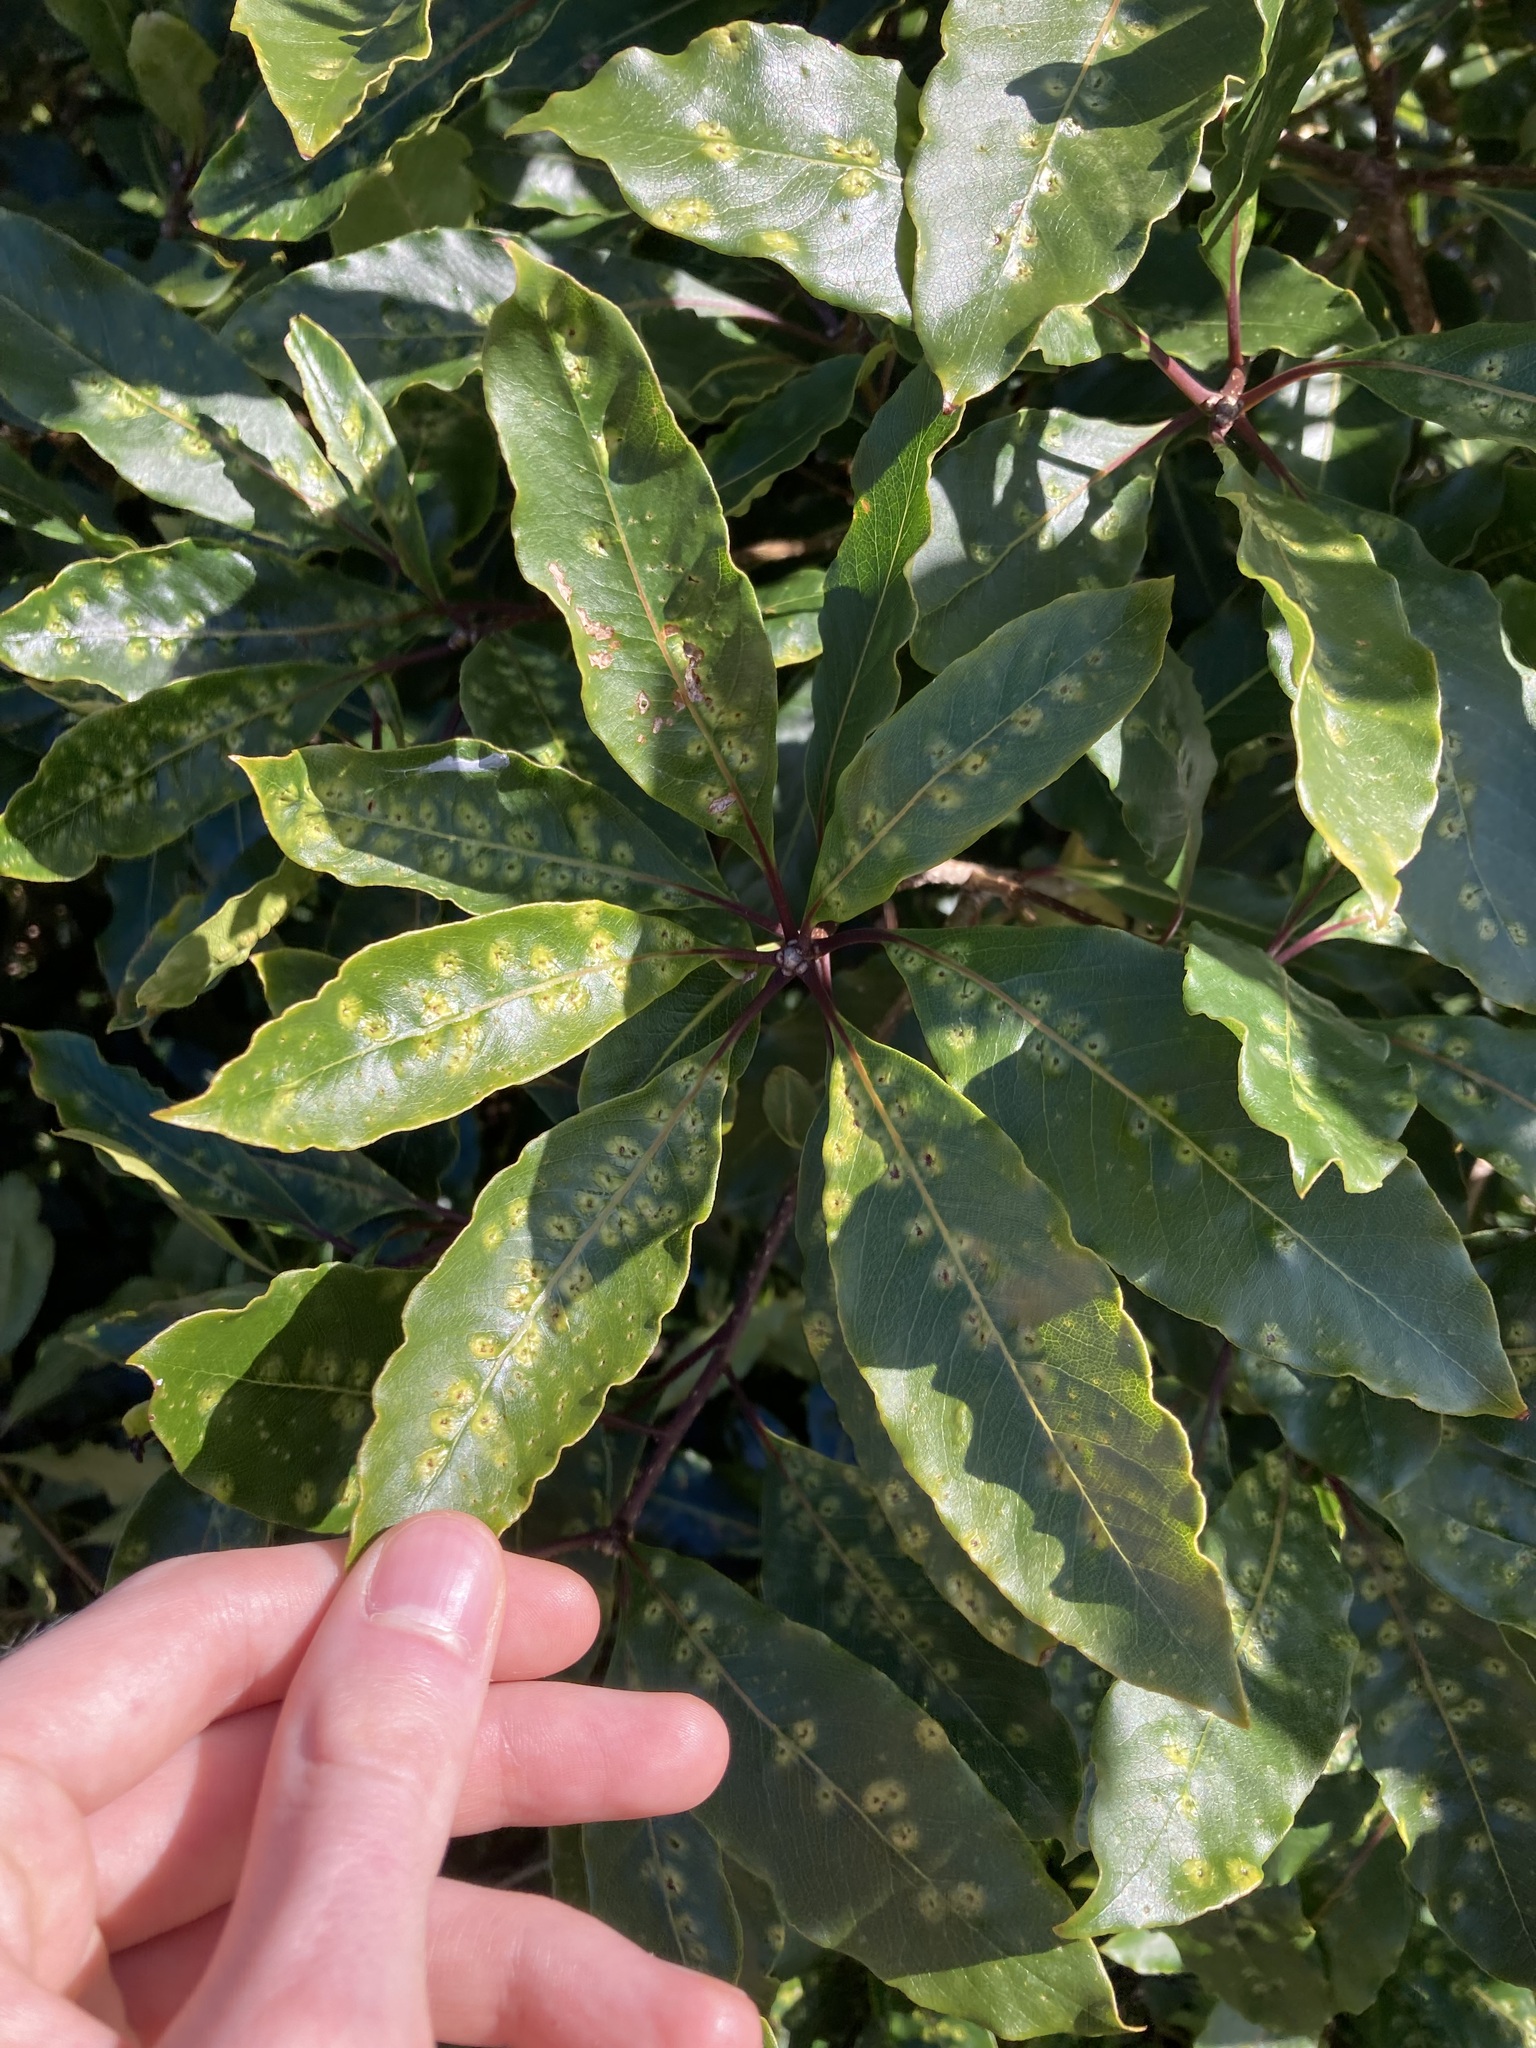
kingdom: Animalia
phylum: Arthropoda
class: Insecta
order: Diptera
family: Agromyzidae
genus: Phytoliriomyza
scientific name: Phytoliriomyza pittosporophylli
